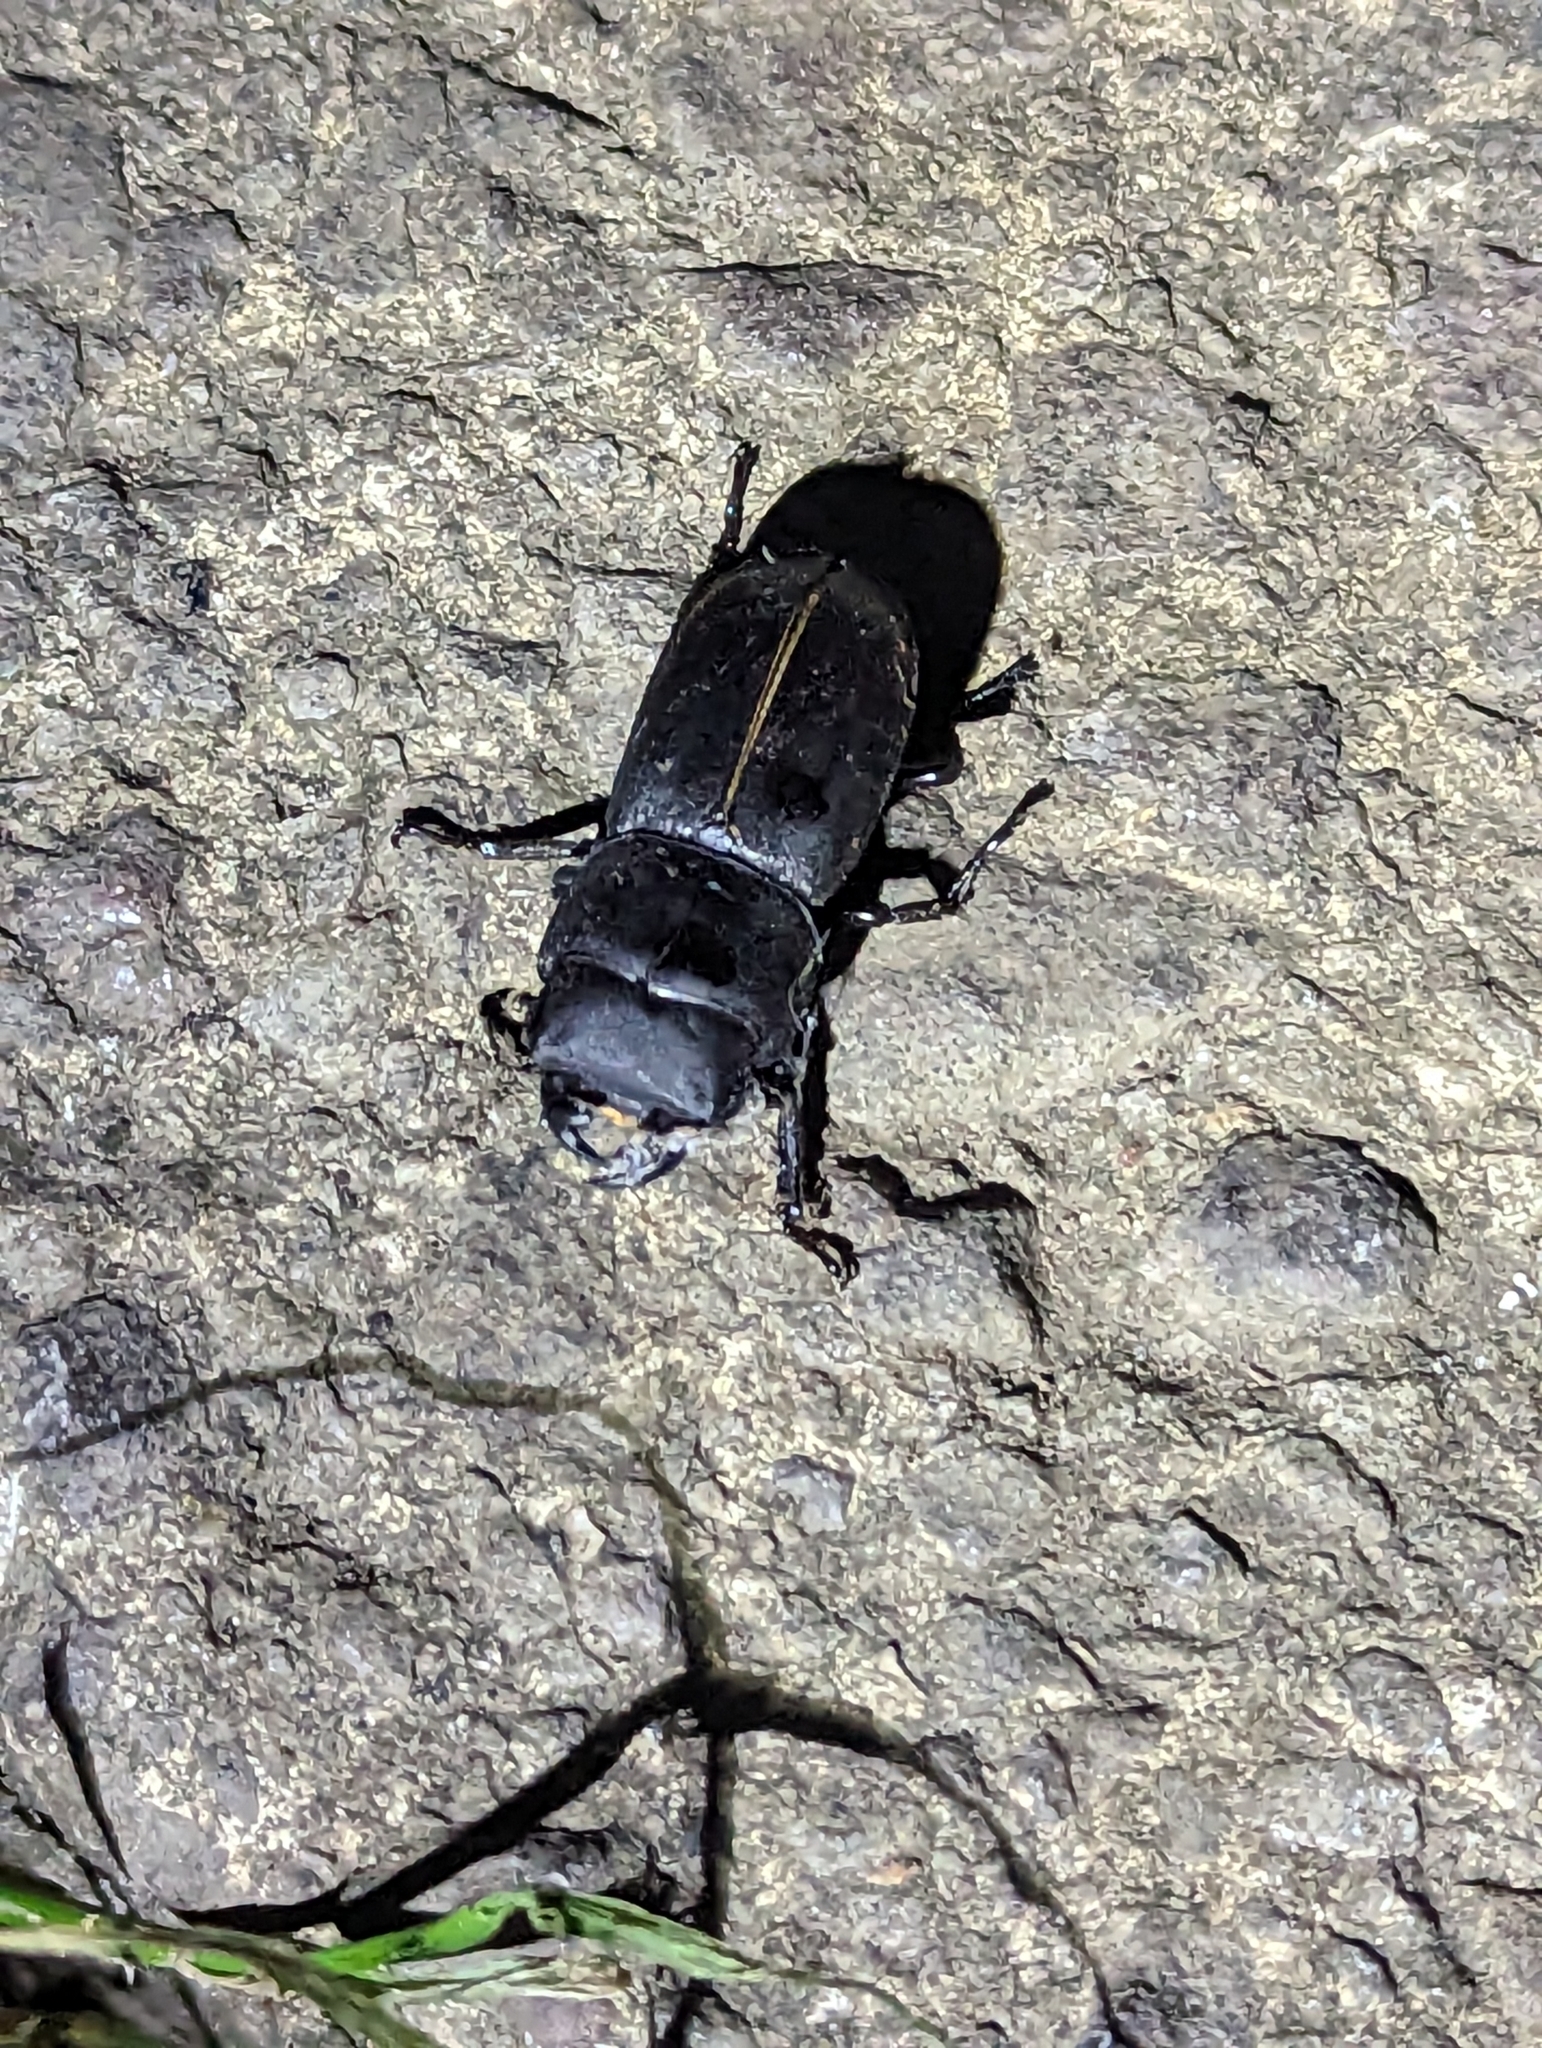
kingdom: Animalia
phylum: Arthropoda
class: Insecta
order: Coleoptera
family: Lucanidae
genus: Dorcus
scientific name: Dorcus parallelipipedus
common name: Lesser stag beetle
